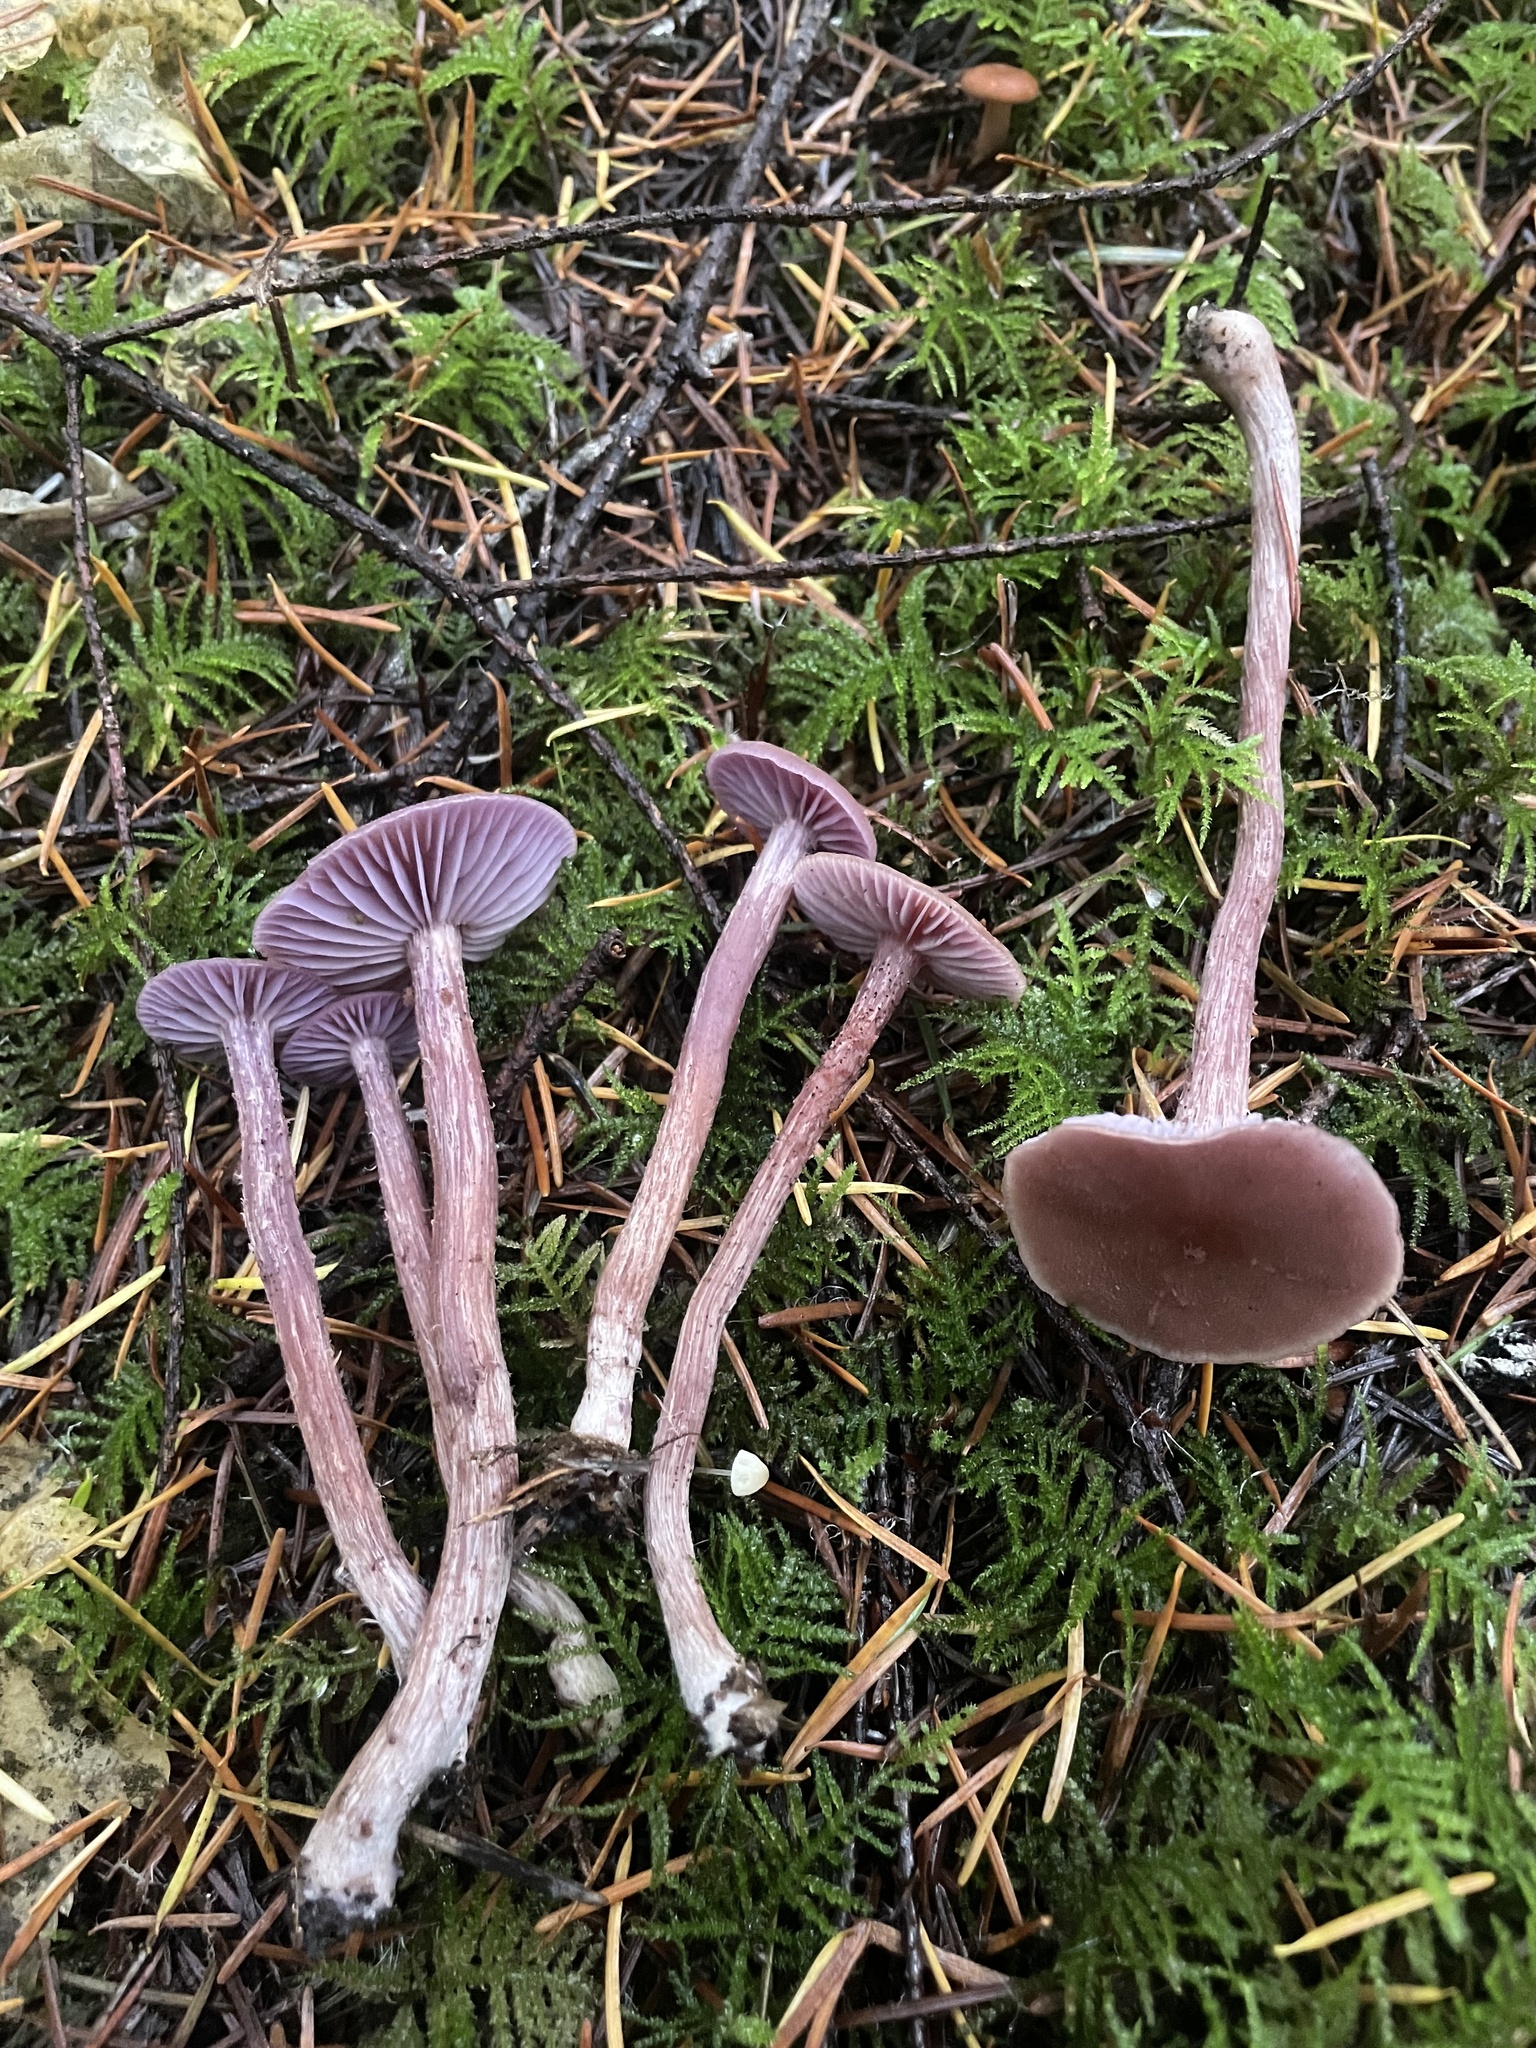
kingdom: Fungi
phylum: Basidiomycota
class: Agaricomycetes
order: Agaricales
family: Hydnangiaceae
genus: Laccaria
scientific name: Laccaria amethysteo-occidentalis
